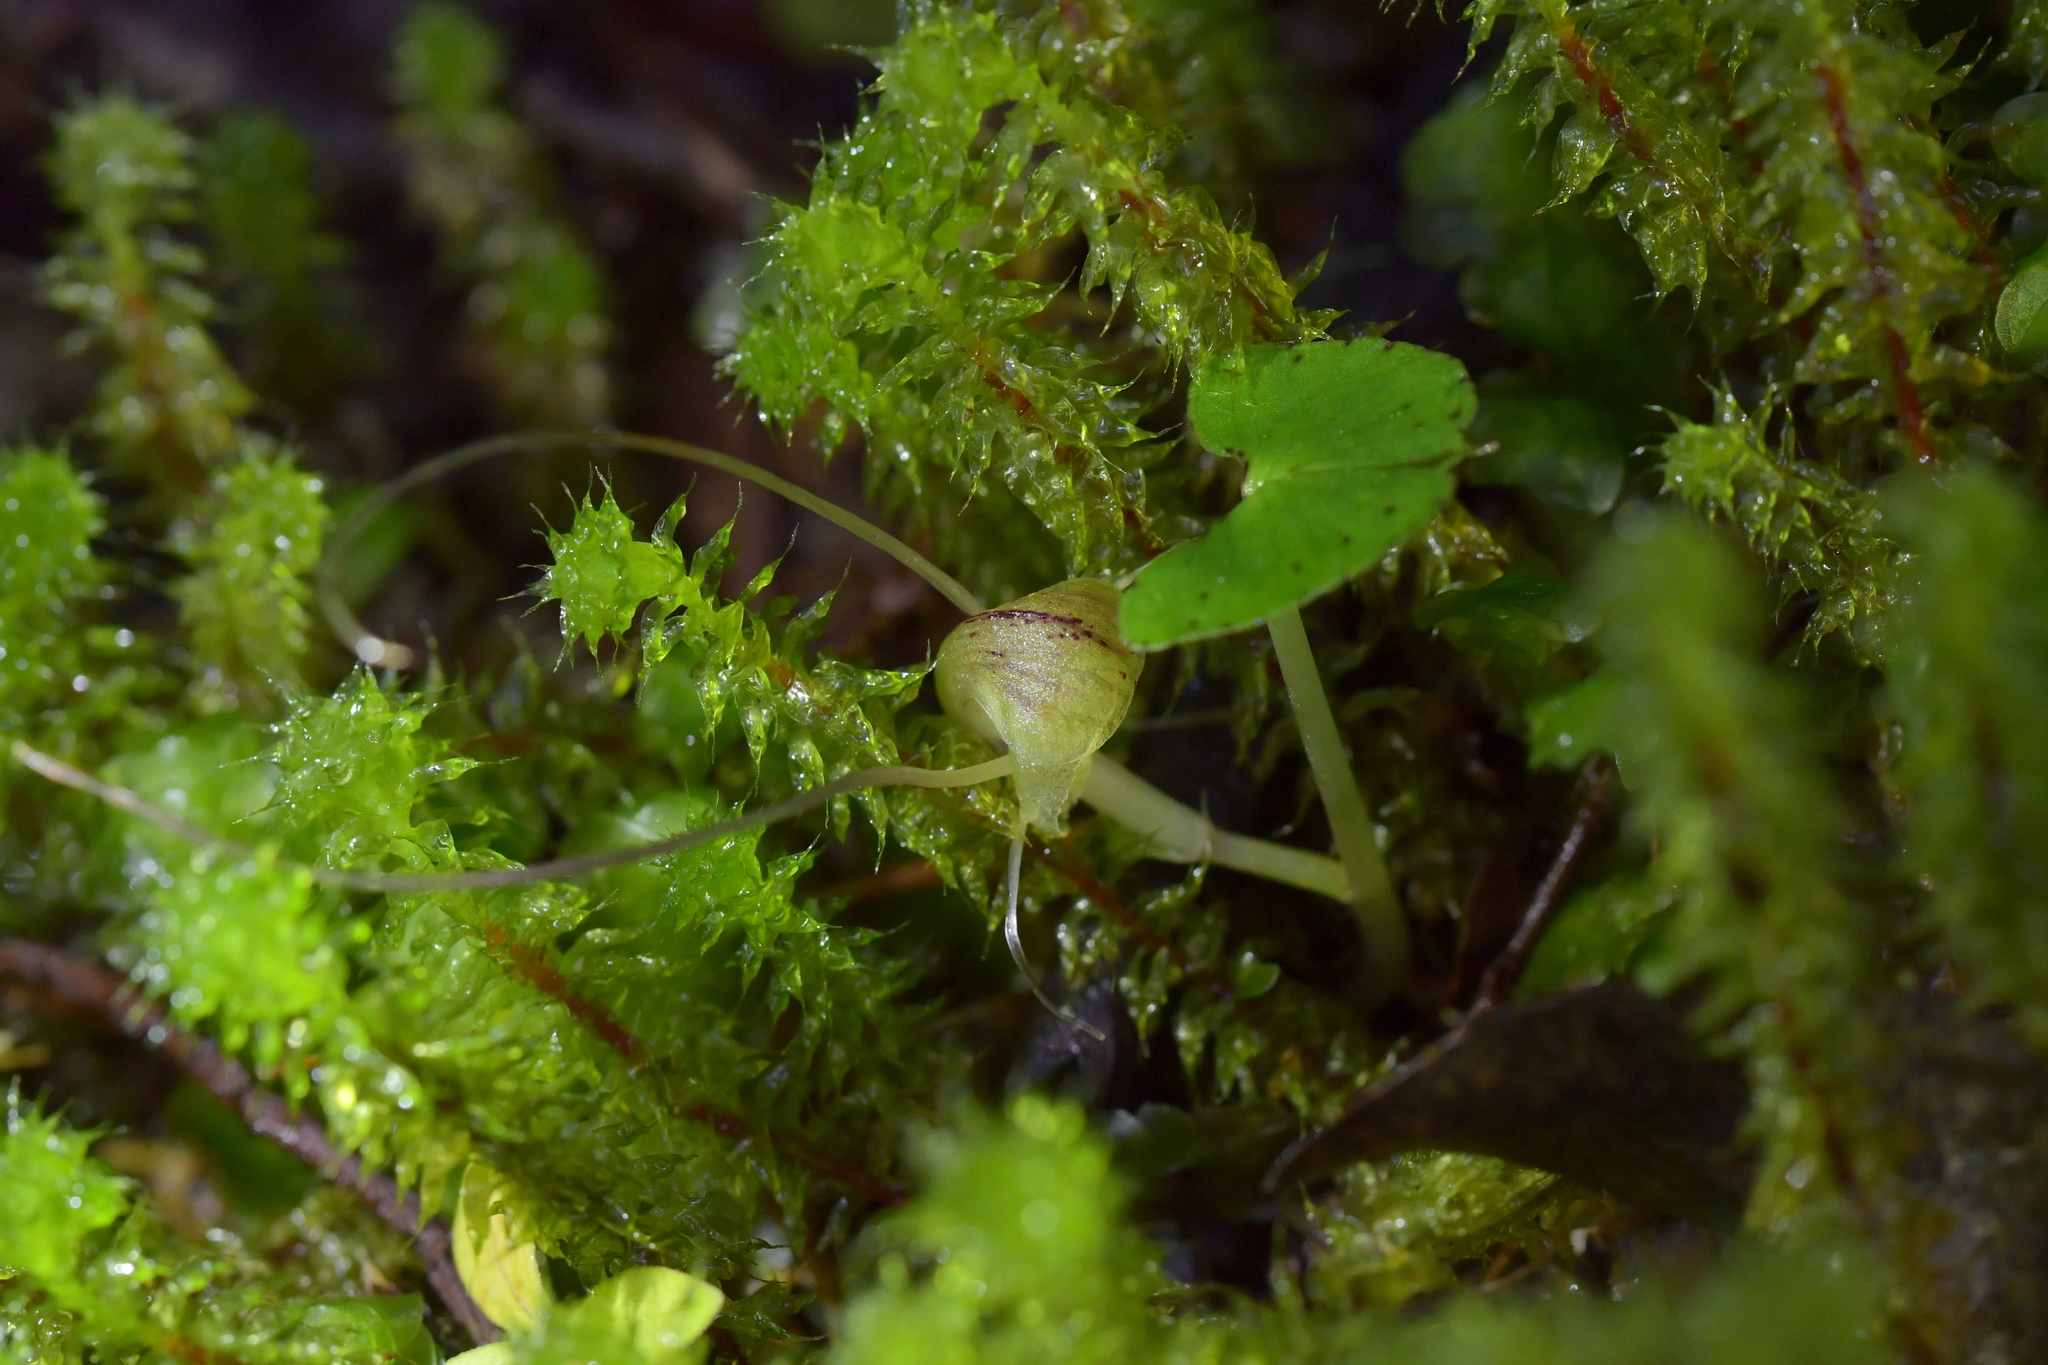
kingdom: Plantae
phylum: Tracheophyta
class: Liliopsida
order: Asparagales
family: Orchidaceae
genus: Corybas
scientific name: Corybas walliae
